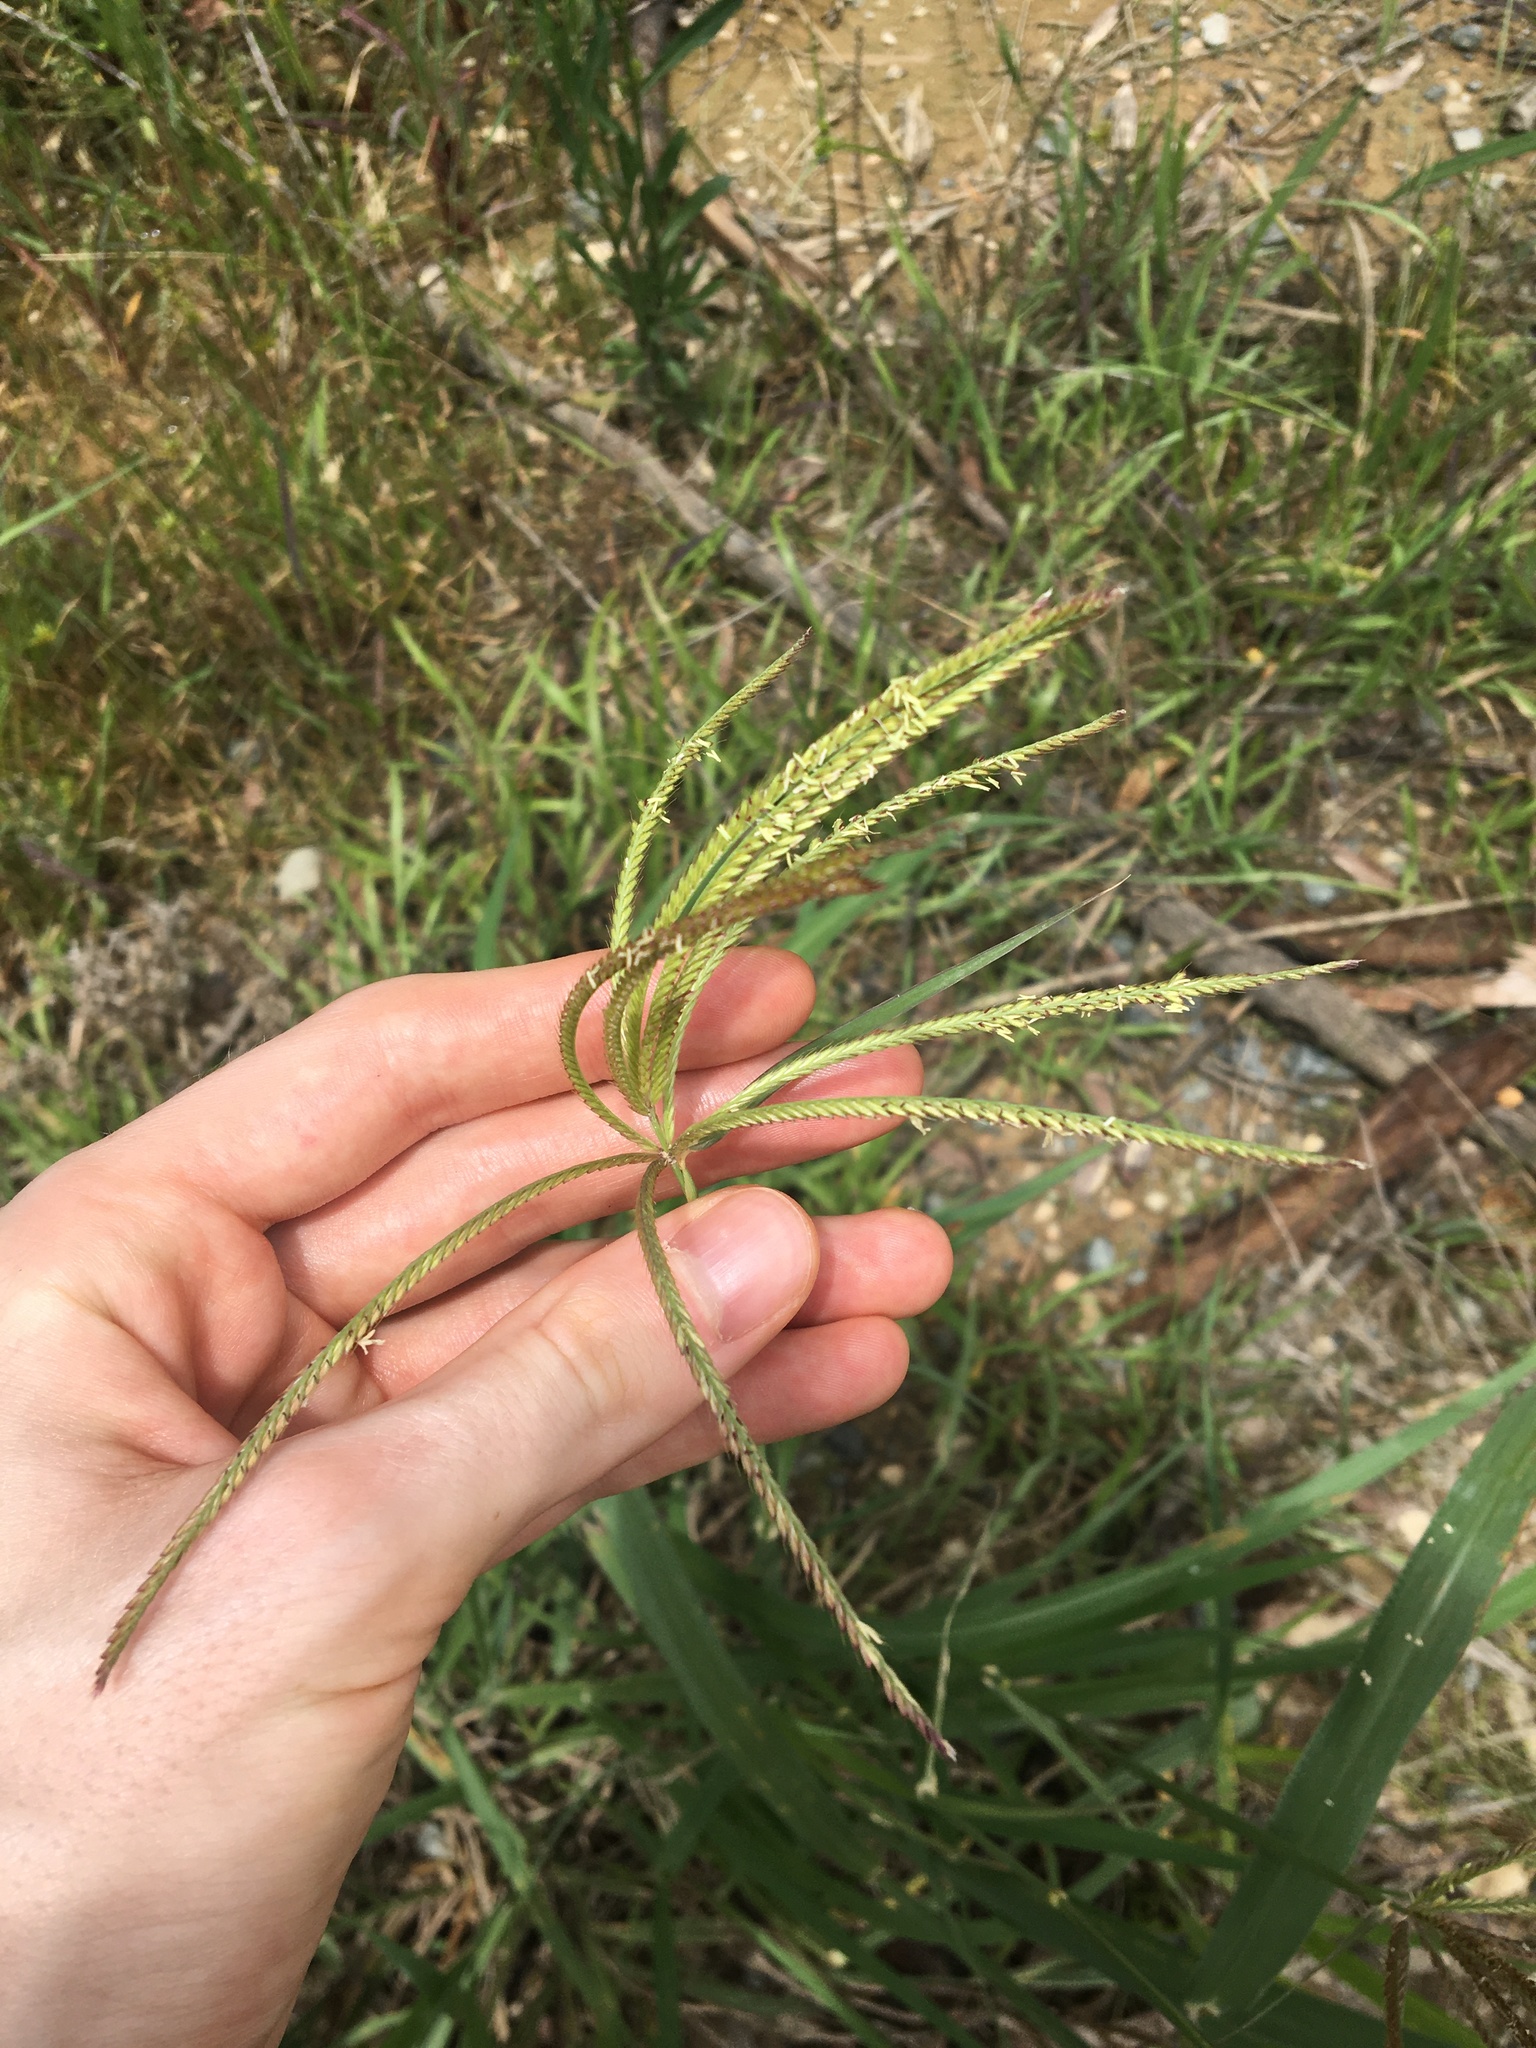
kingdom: Plantae
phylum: Tracheophyta
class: Liliopsida
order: Poales
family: Poaceae
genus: Chloris
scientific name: Chloris gayana
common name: Rhodes grass
